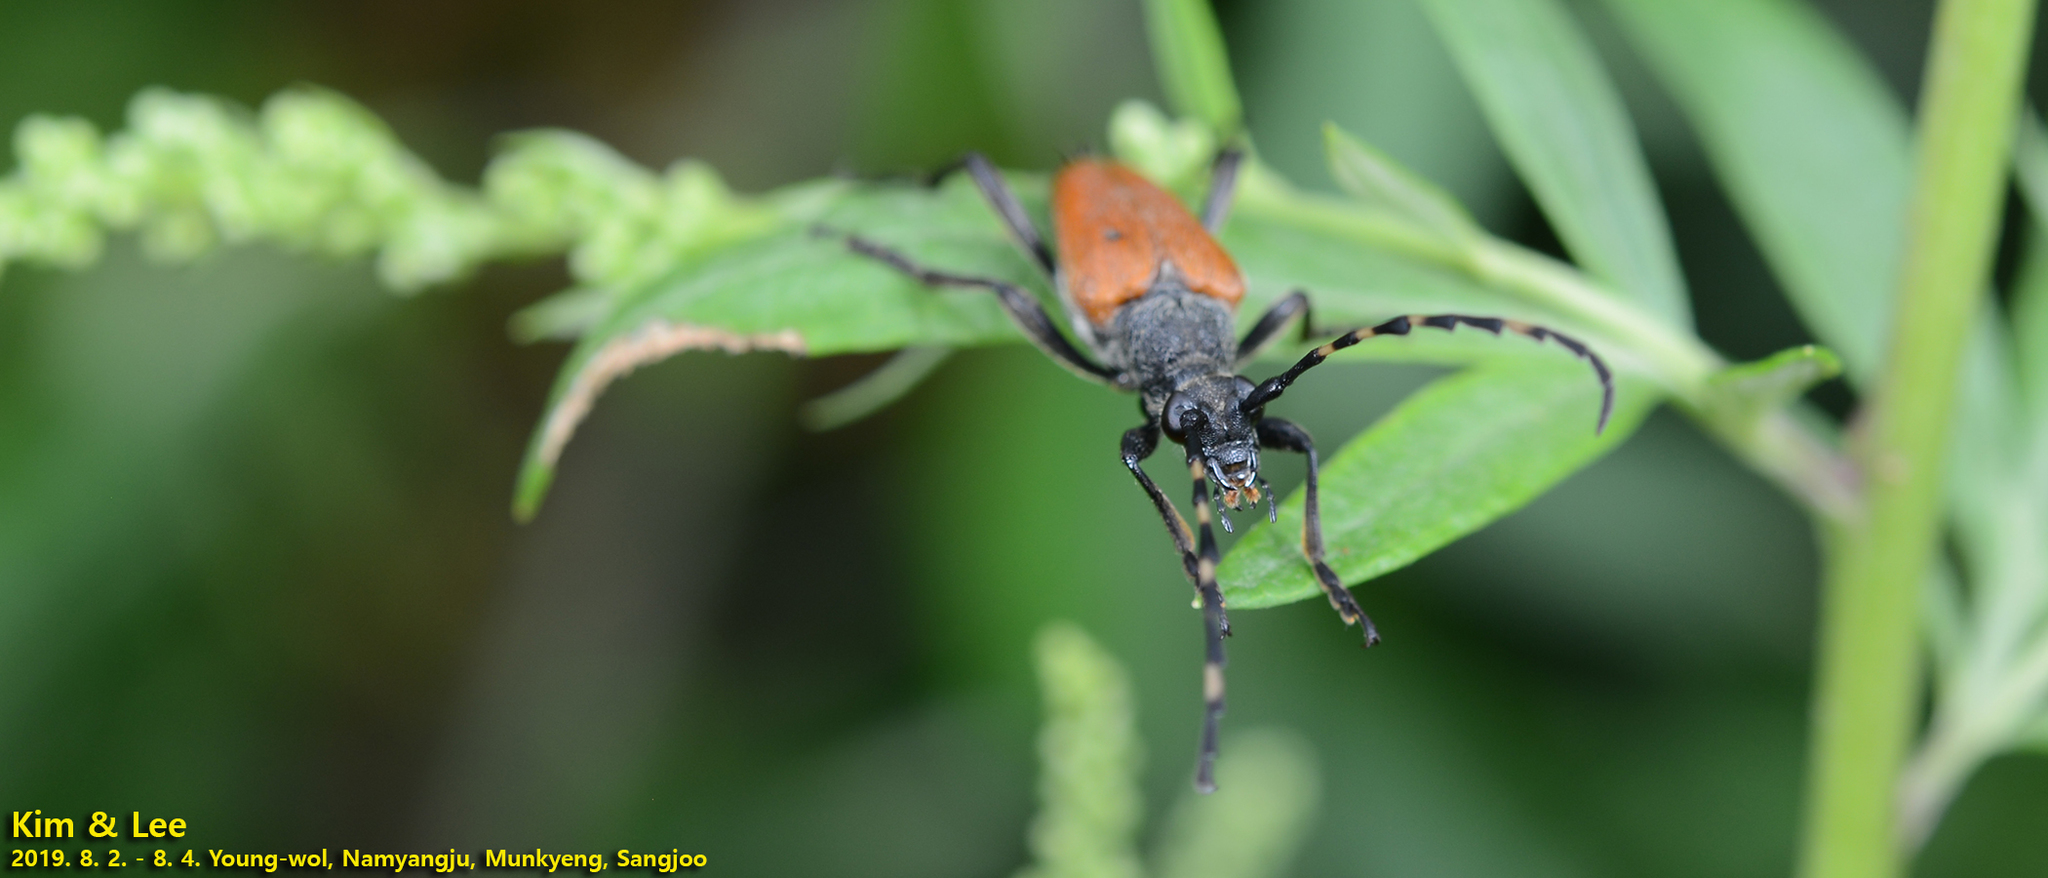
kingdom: Animalia
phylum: Arthropoda
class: Insecta
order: Coleoptera
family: Cerambycidae
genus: Stictoleptura
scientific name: Stictoleptura variicornis
